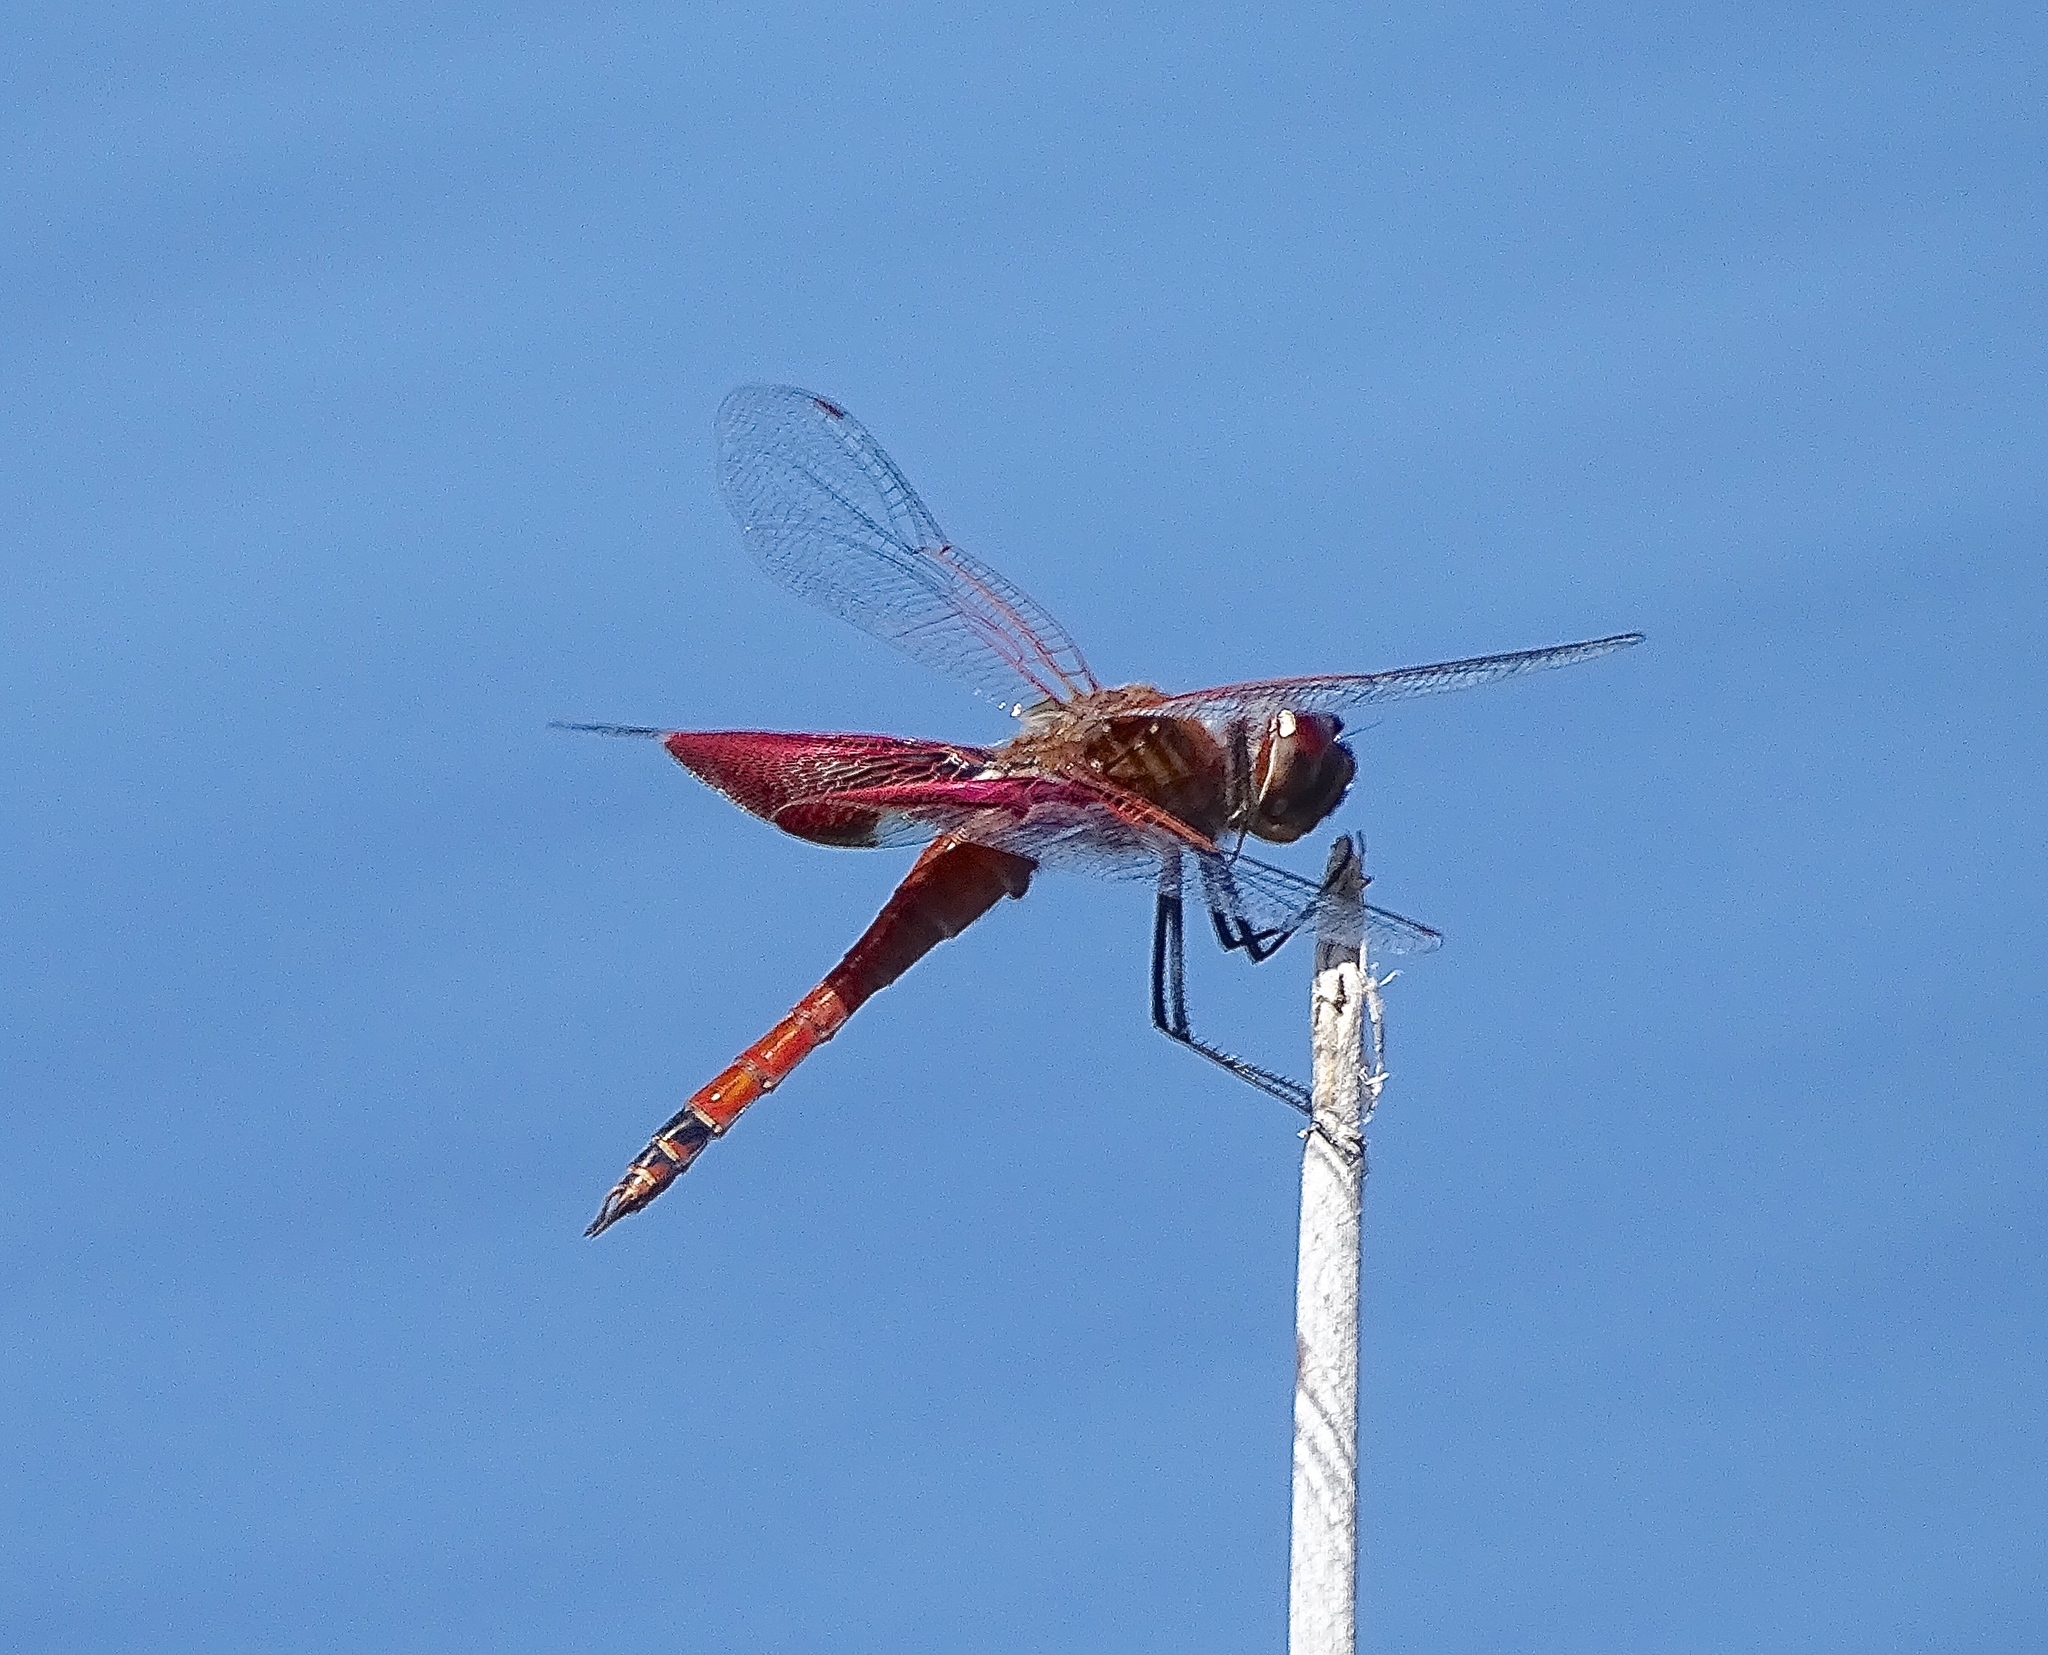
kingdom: Animalia
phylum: Arthropoda
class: Insecta
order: Odonata
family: Libellulidae
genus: Tramea
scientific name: Tramea carolina
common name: Carolina saddlebags
